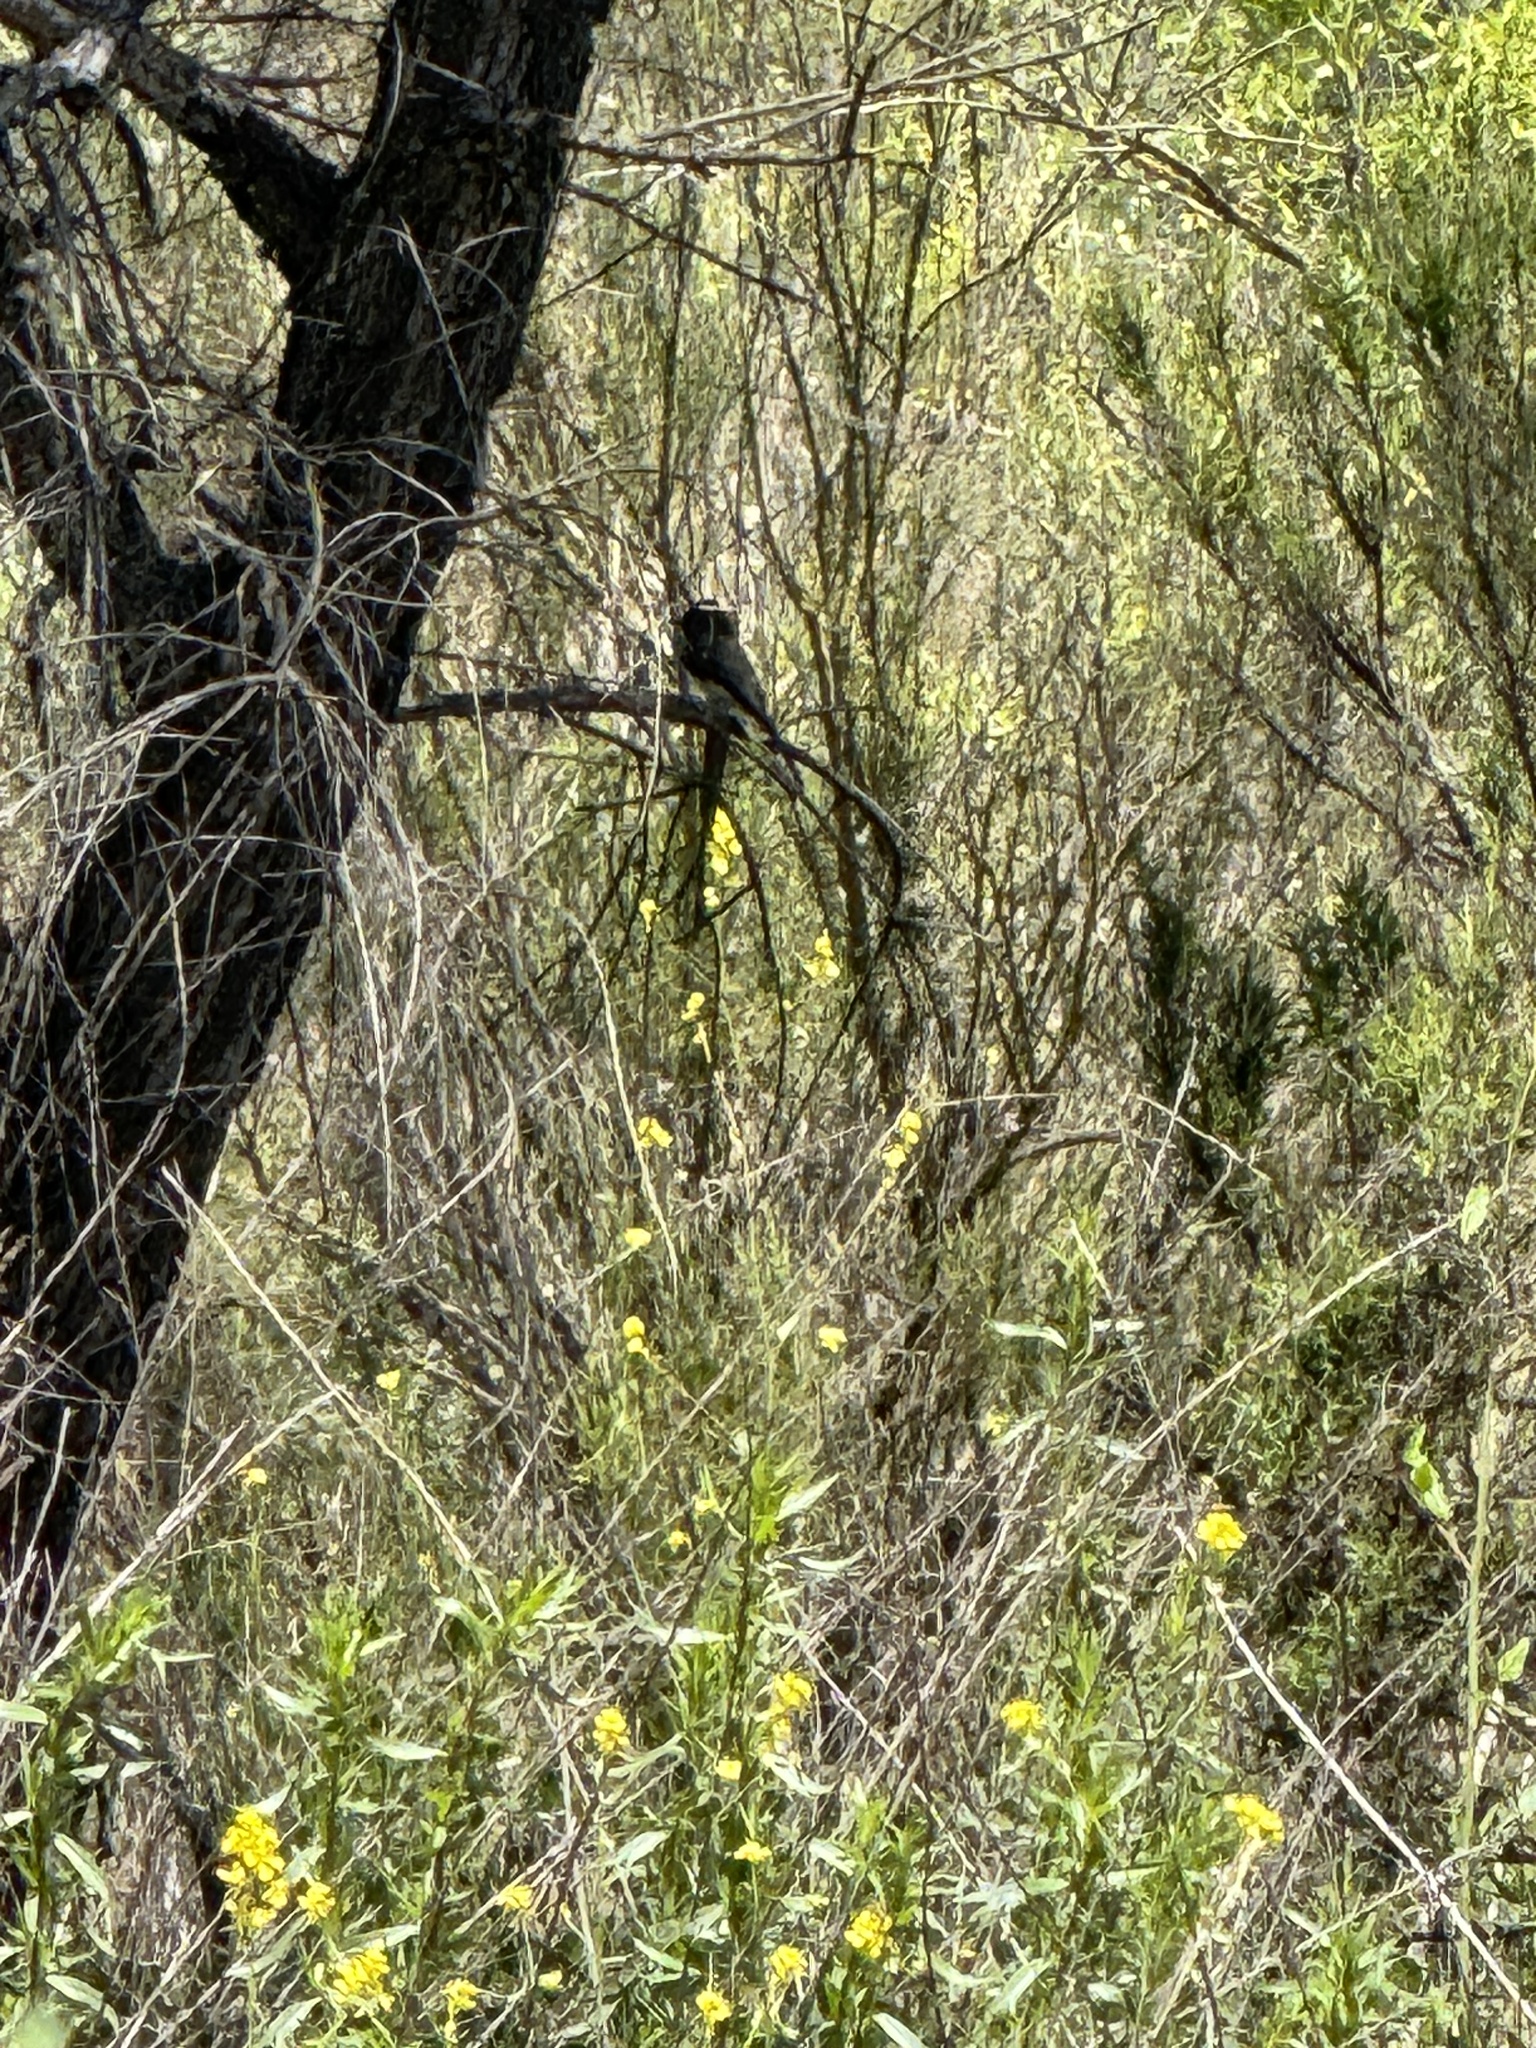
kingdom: Animalia
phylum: Chordata
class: Aves
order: Passeriformes
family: Tyrannidae
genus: Sayornis
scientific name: Sayornis nigricans
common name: Black phoebe
